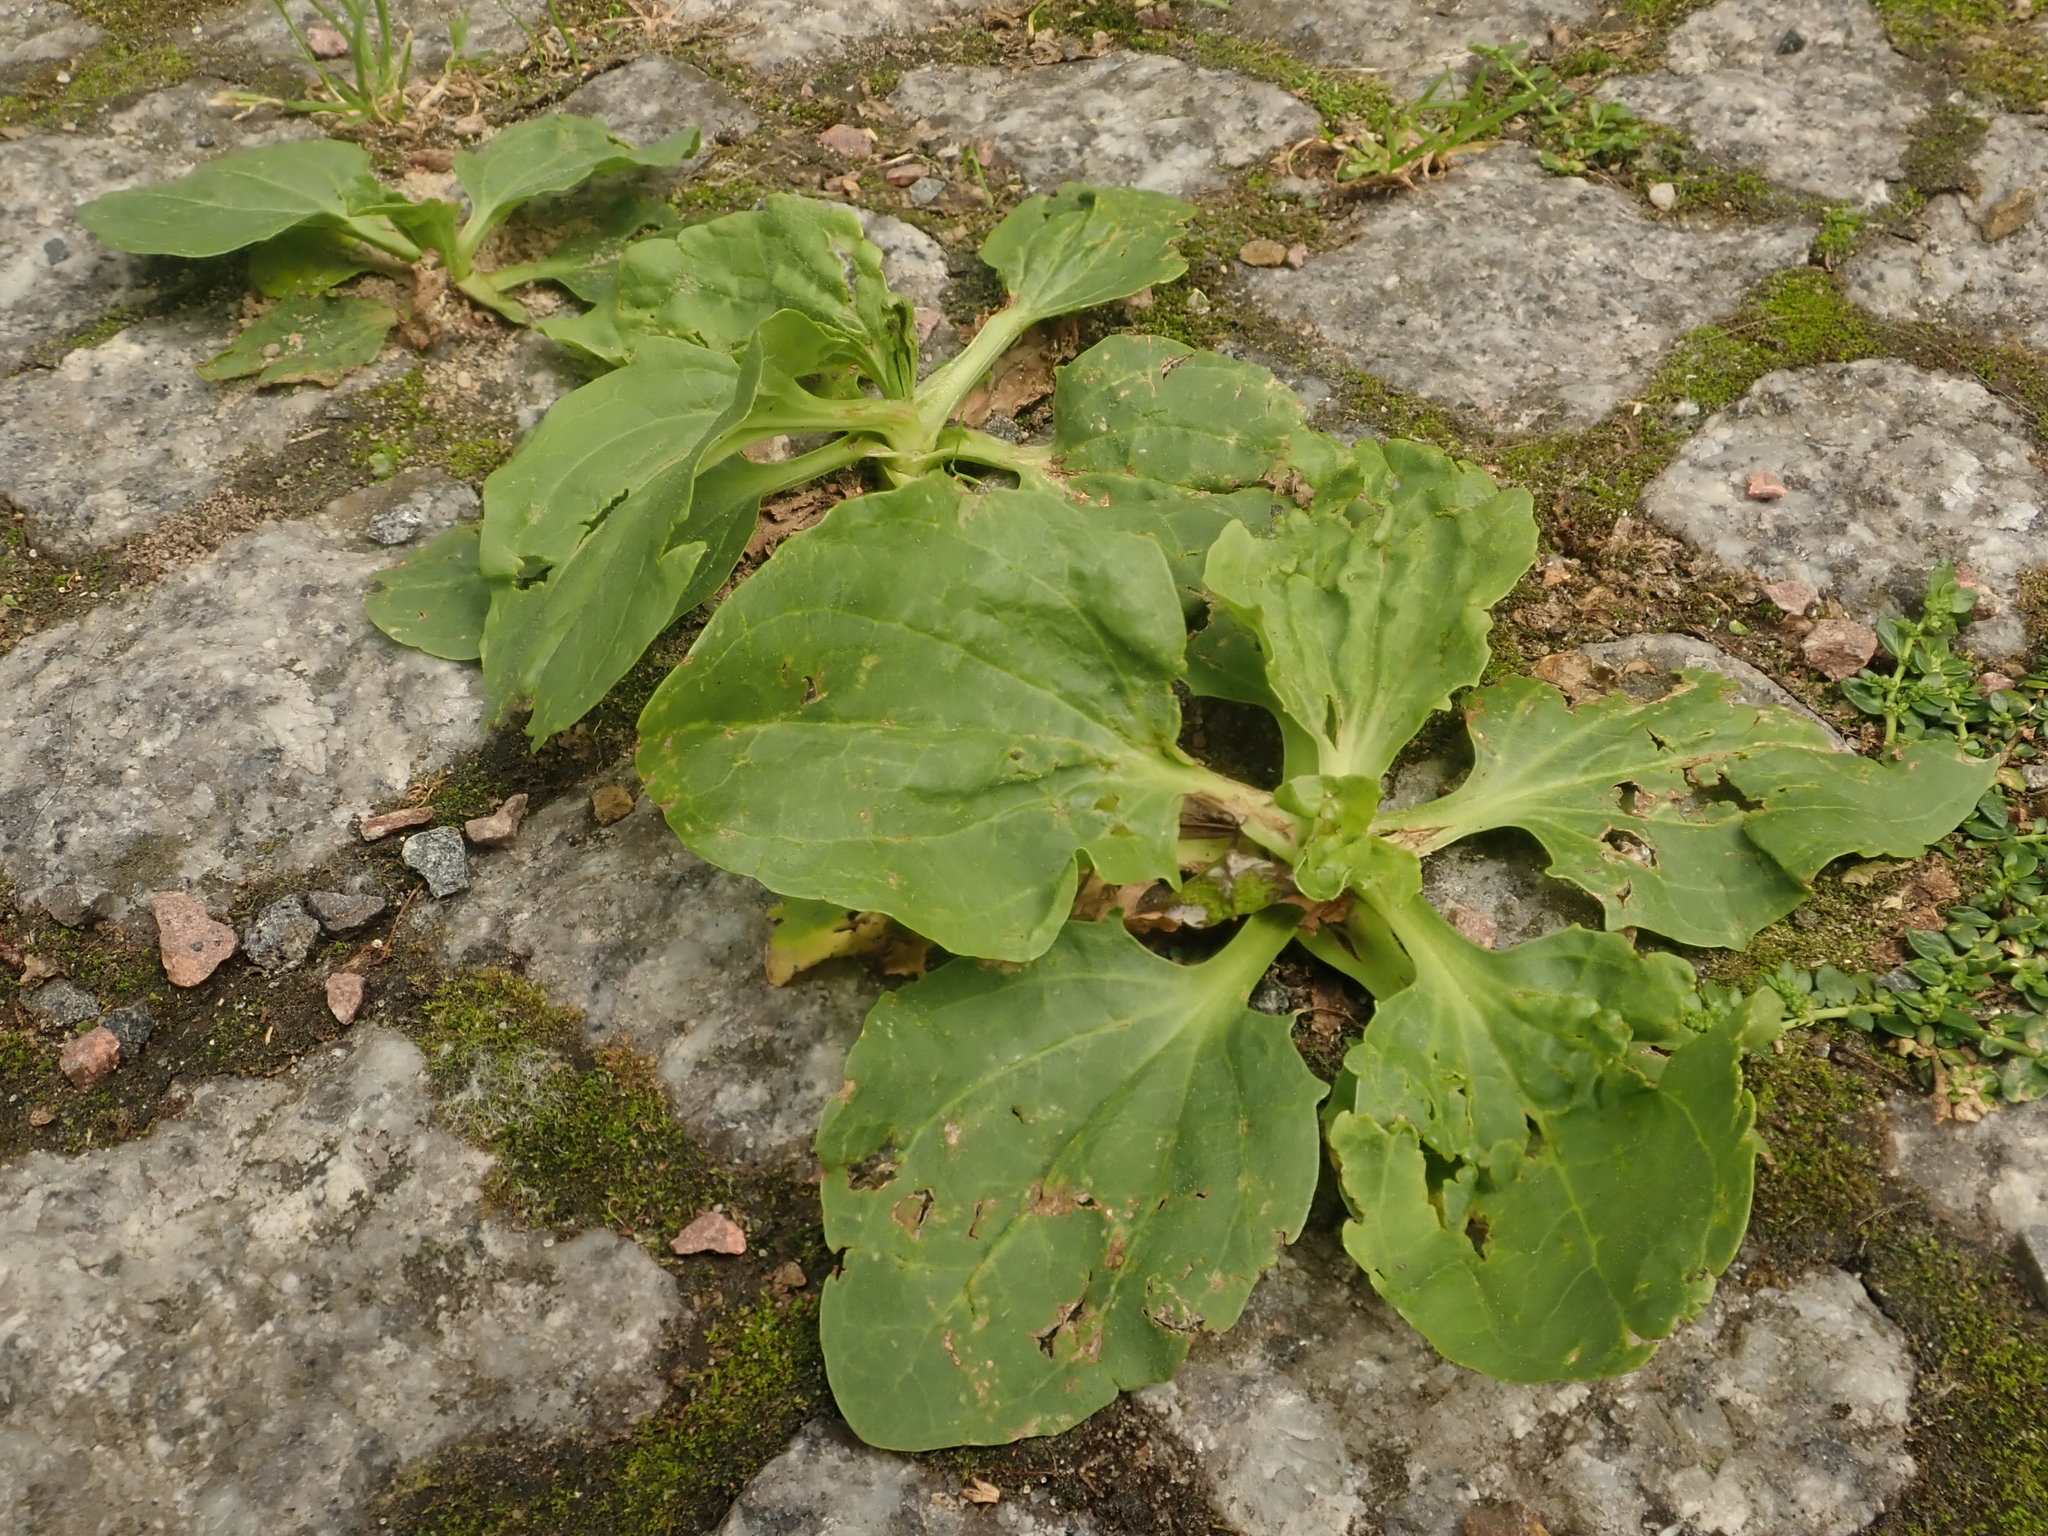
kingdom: Plantae
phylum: Tracheophyta
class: Magnoliopsida
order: Lamiales
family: Plantaginaceae
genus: Plantago
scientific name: Plantago major
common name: Common plantain
